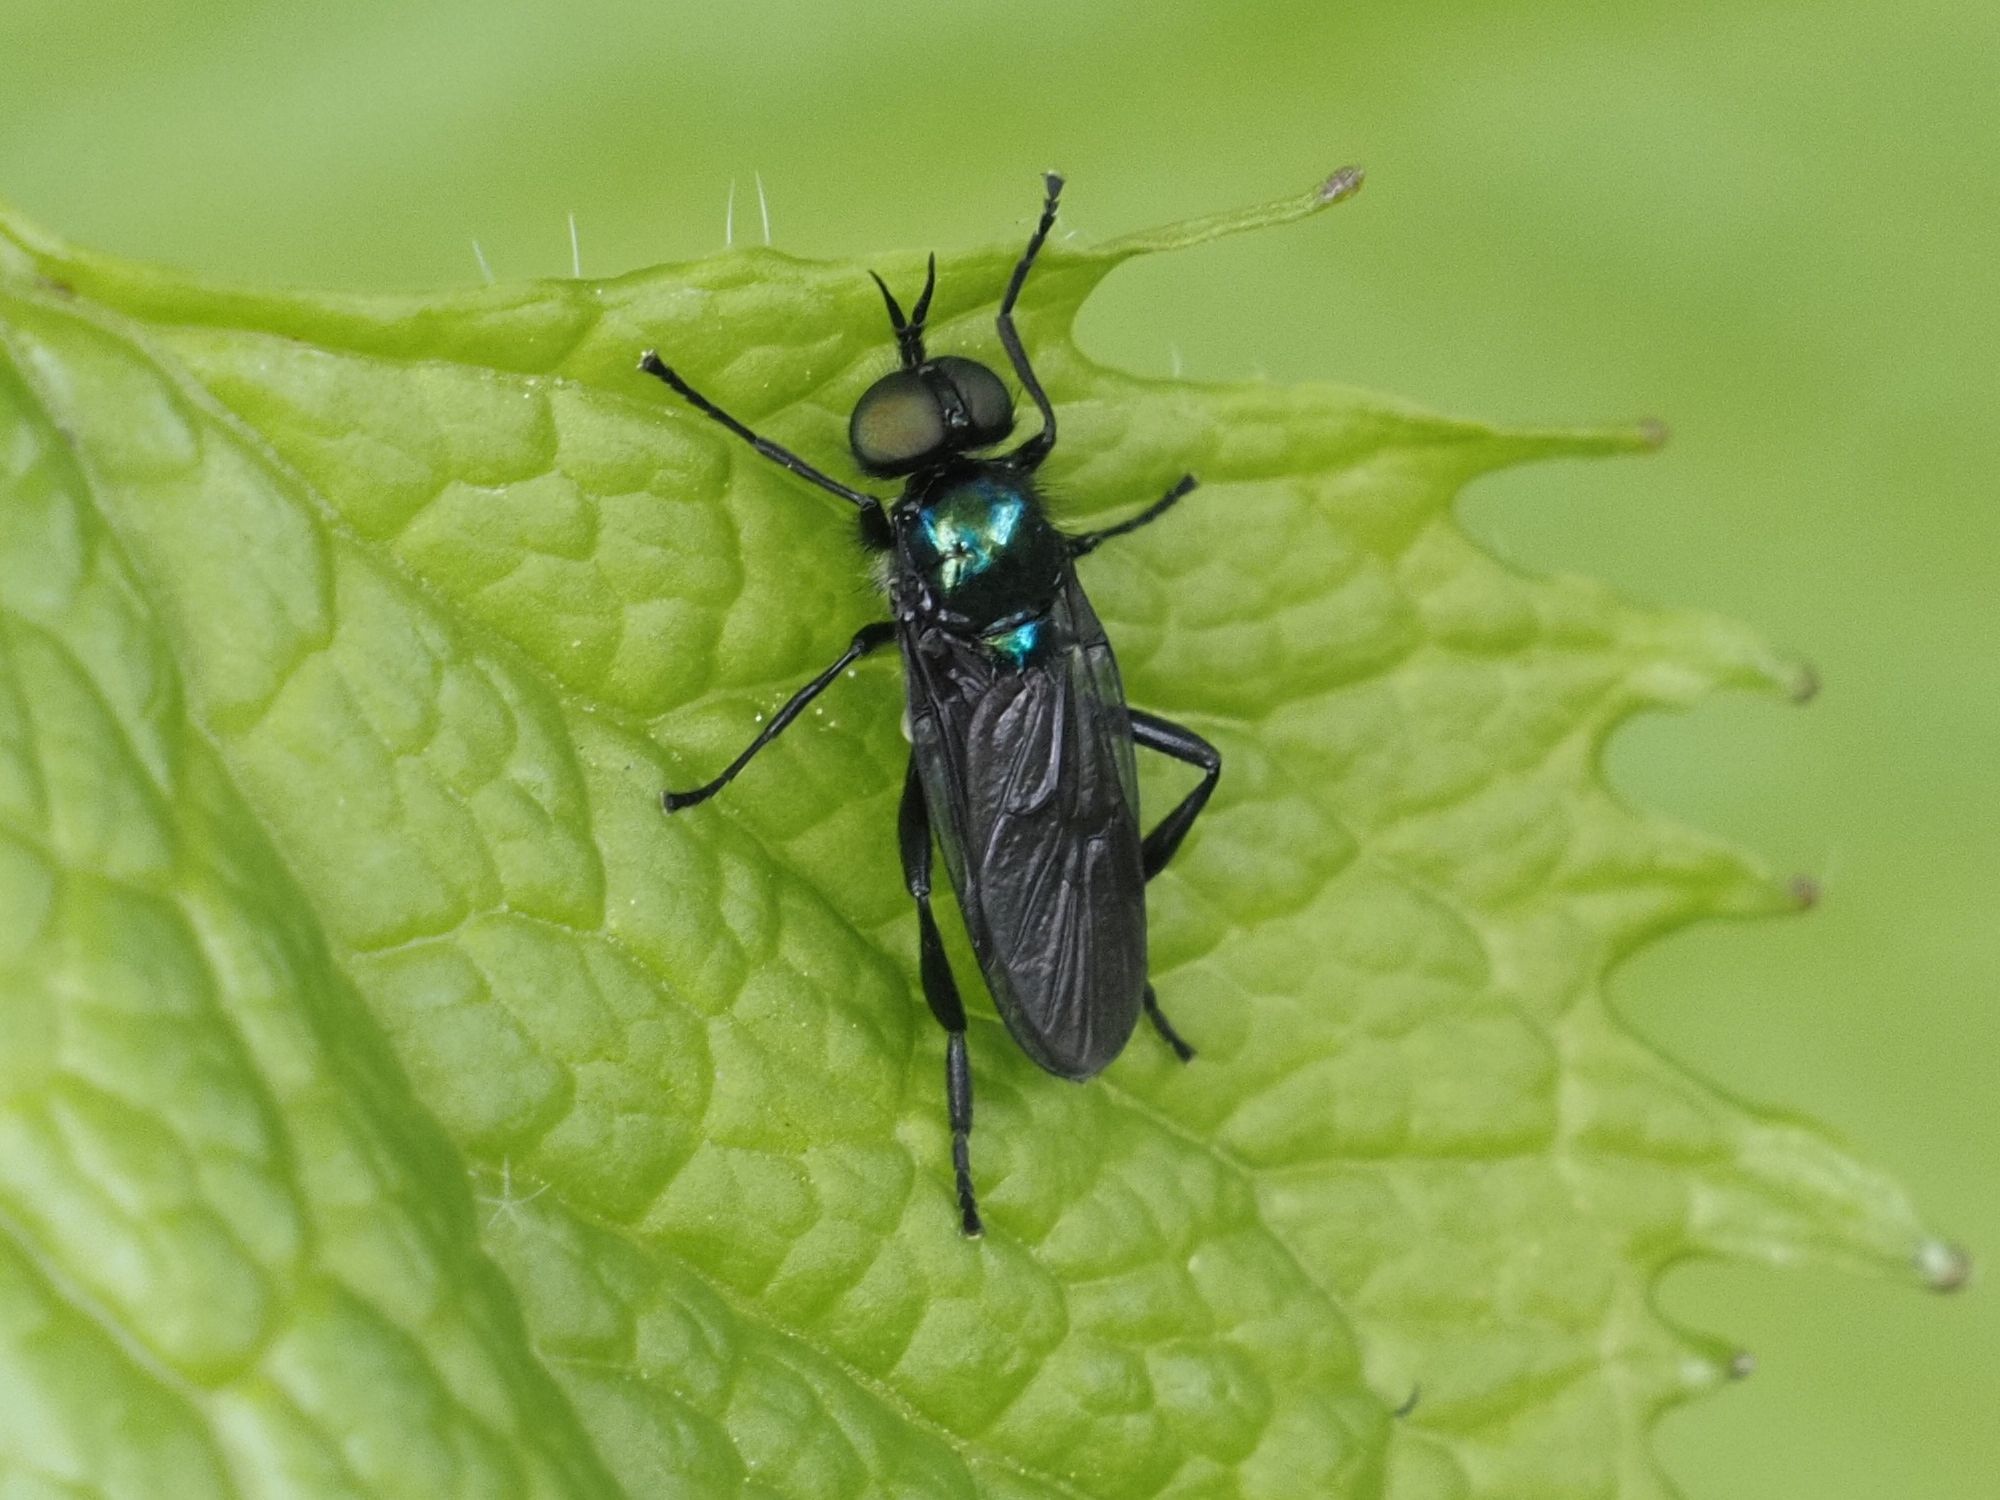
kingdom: Animalia
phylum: Arthropoda
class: Insecta
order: Diptera
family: Stratiomyidae
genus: Actina
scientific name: Actina chalybea
